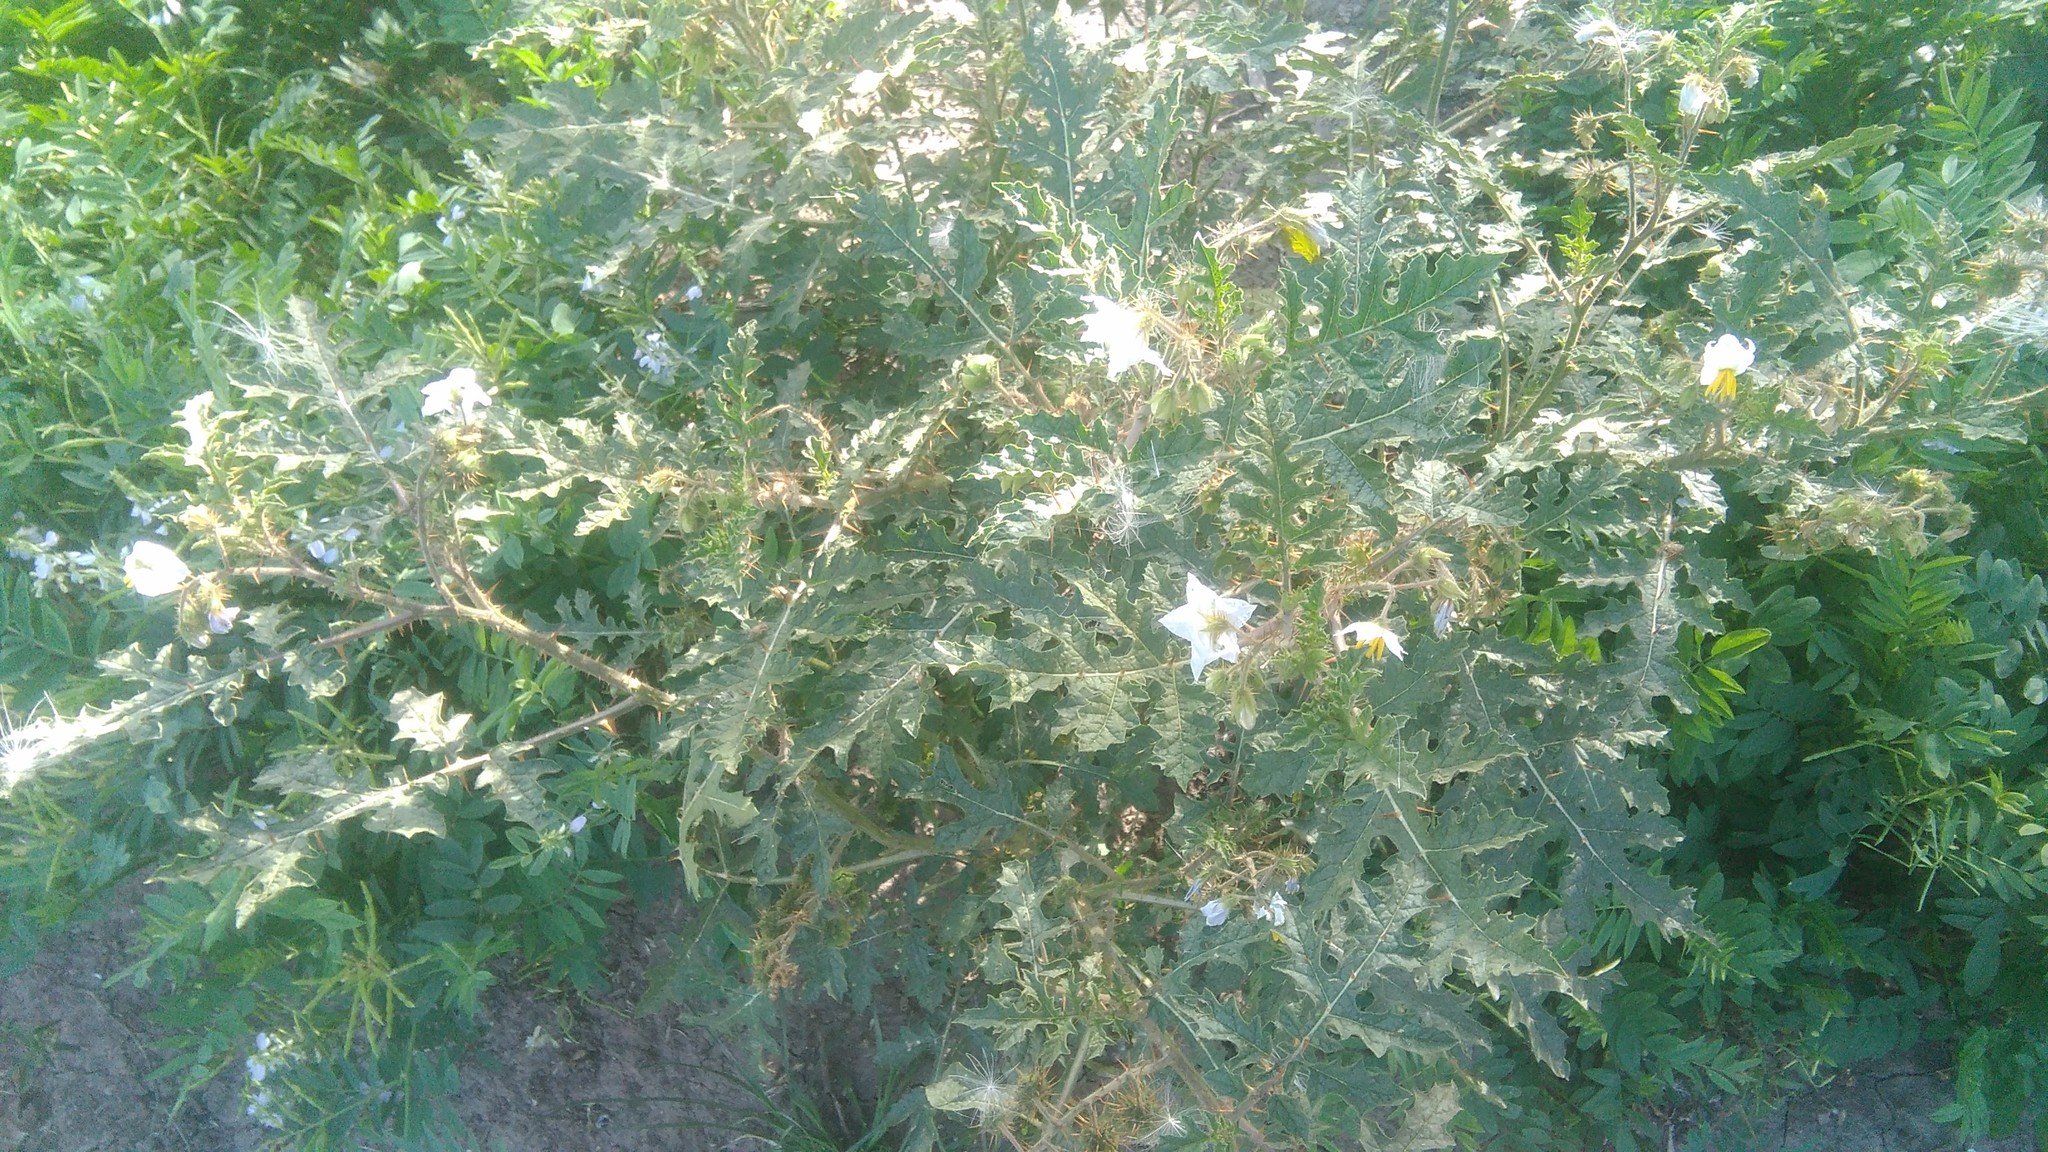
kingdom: Plantae
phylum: Tracheophyta
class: Magnoliopsida
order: Solanales
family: Solanaceae
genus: Solanum
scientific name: Solanum sisymbriifolium
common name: Red buffalo-bur
